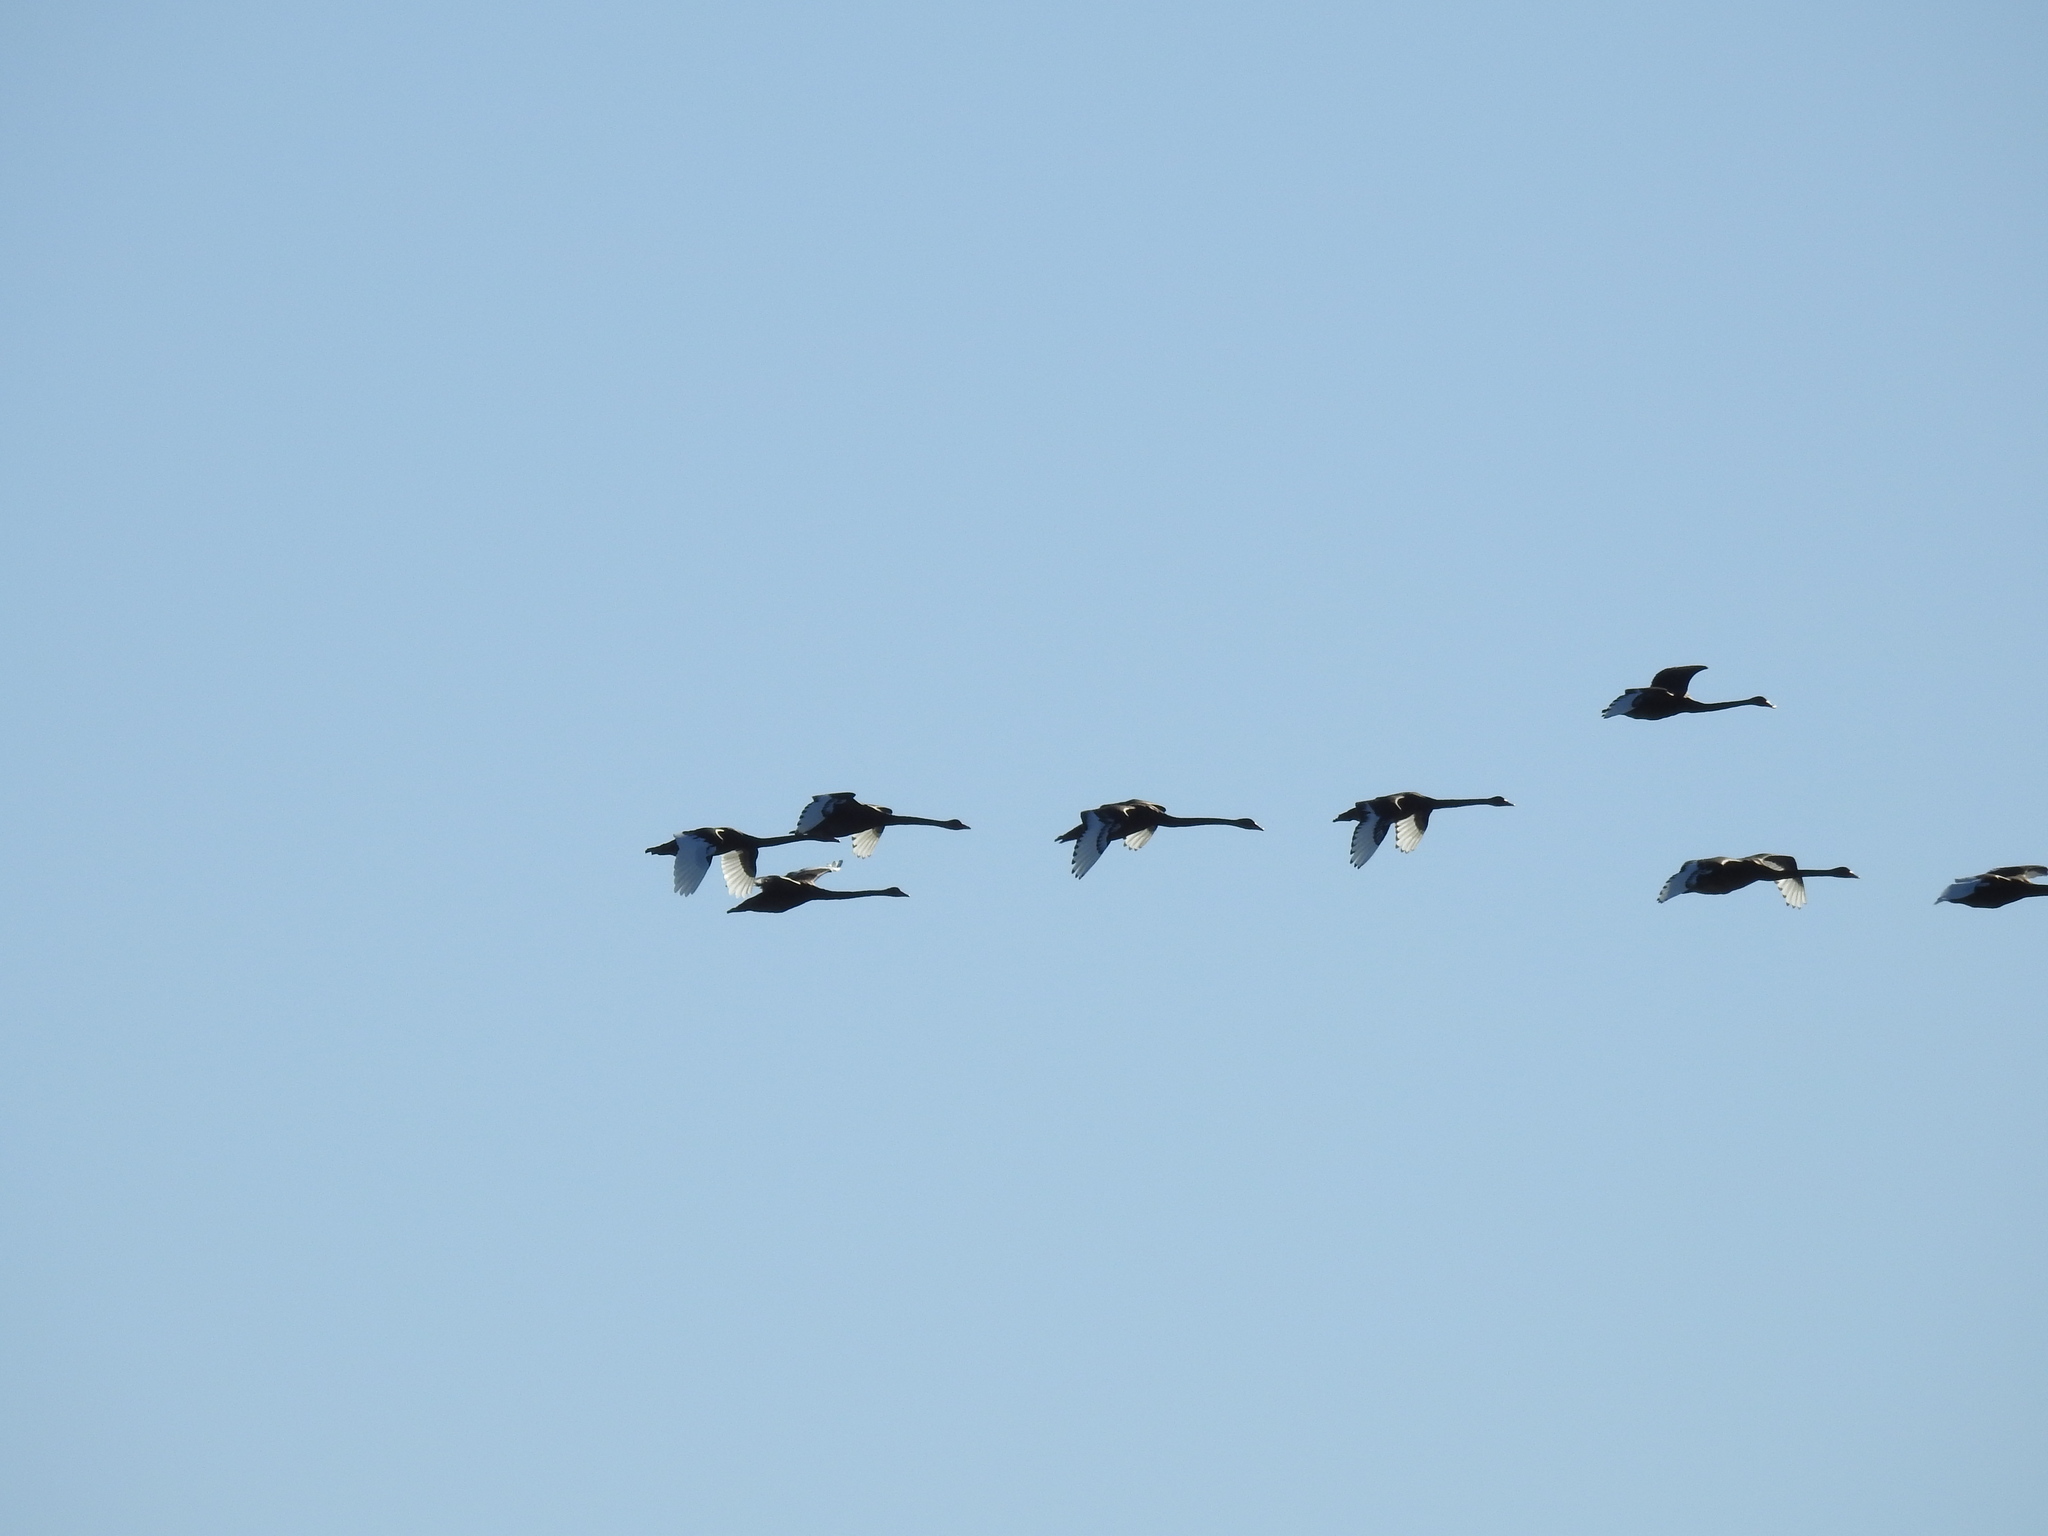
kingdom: Animalia
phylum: Chordata
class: Aves
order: Anseriformes
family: Anatidae
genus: Cygnus
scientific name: Cygnus atratus
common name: Black swan
